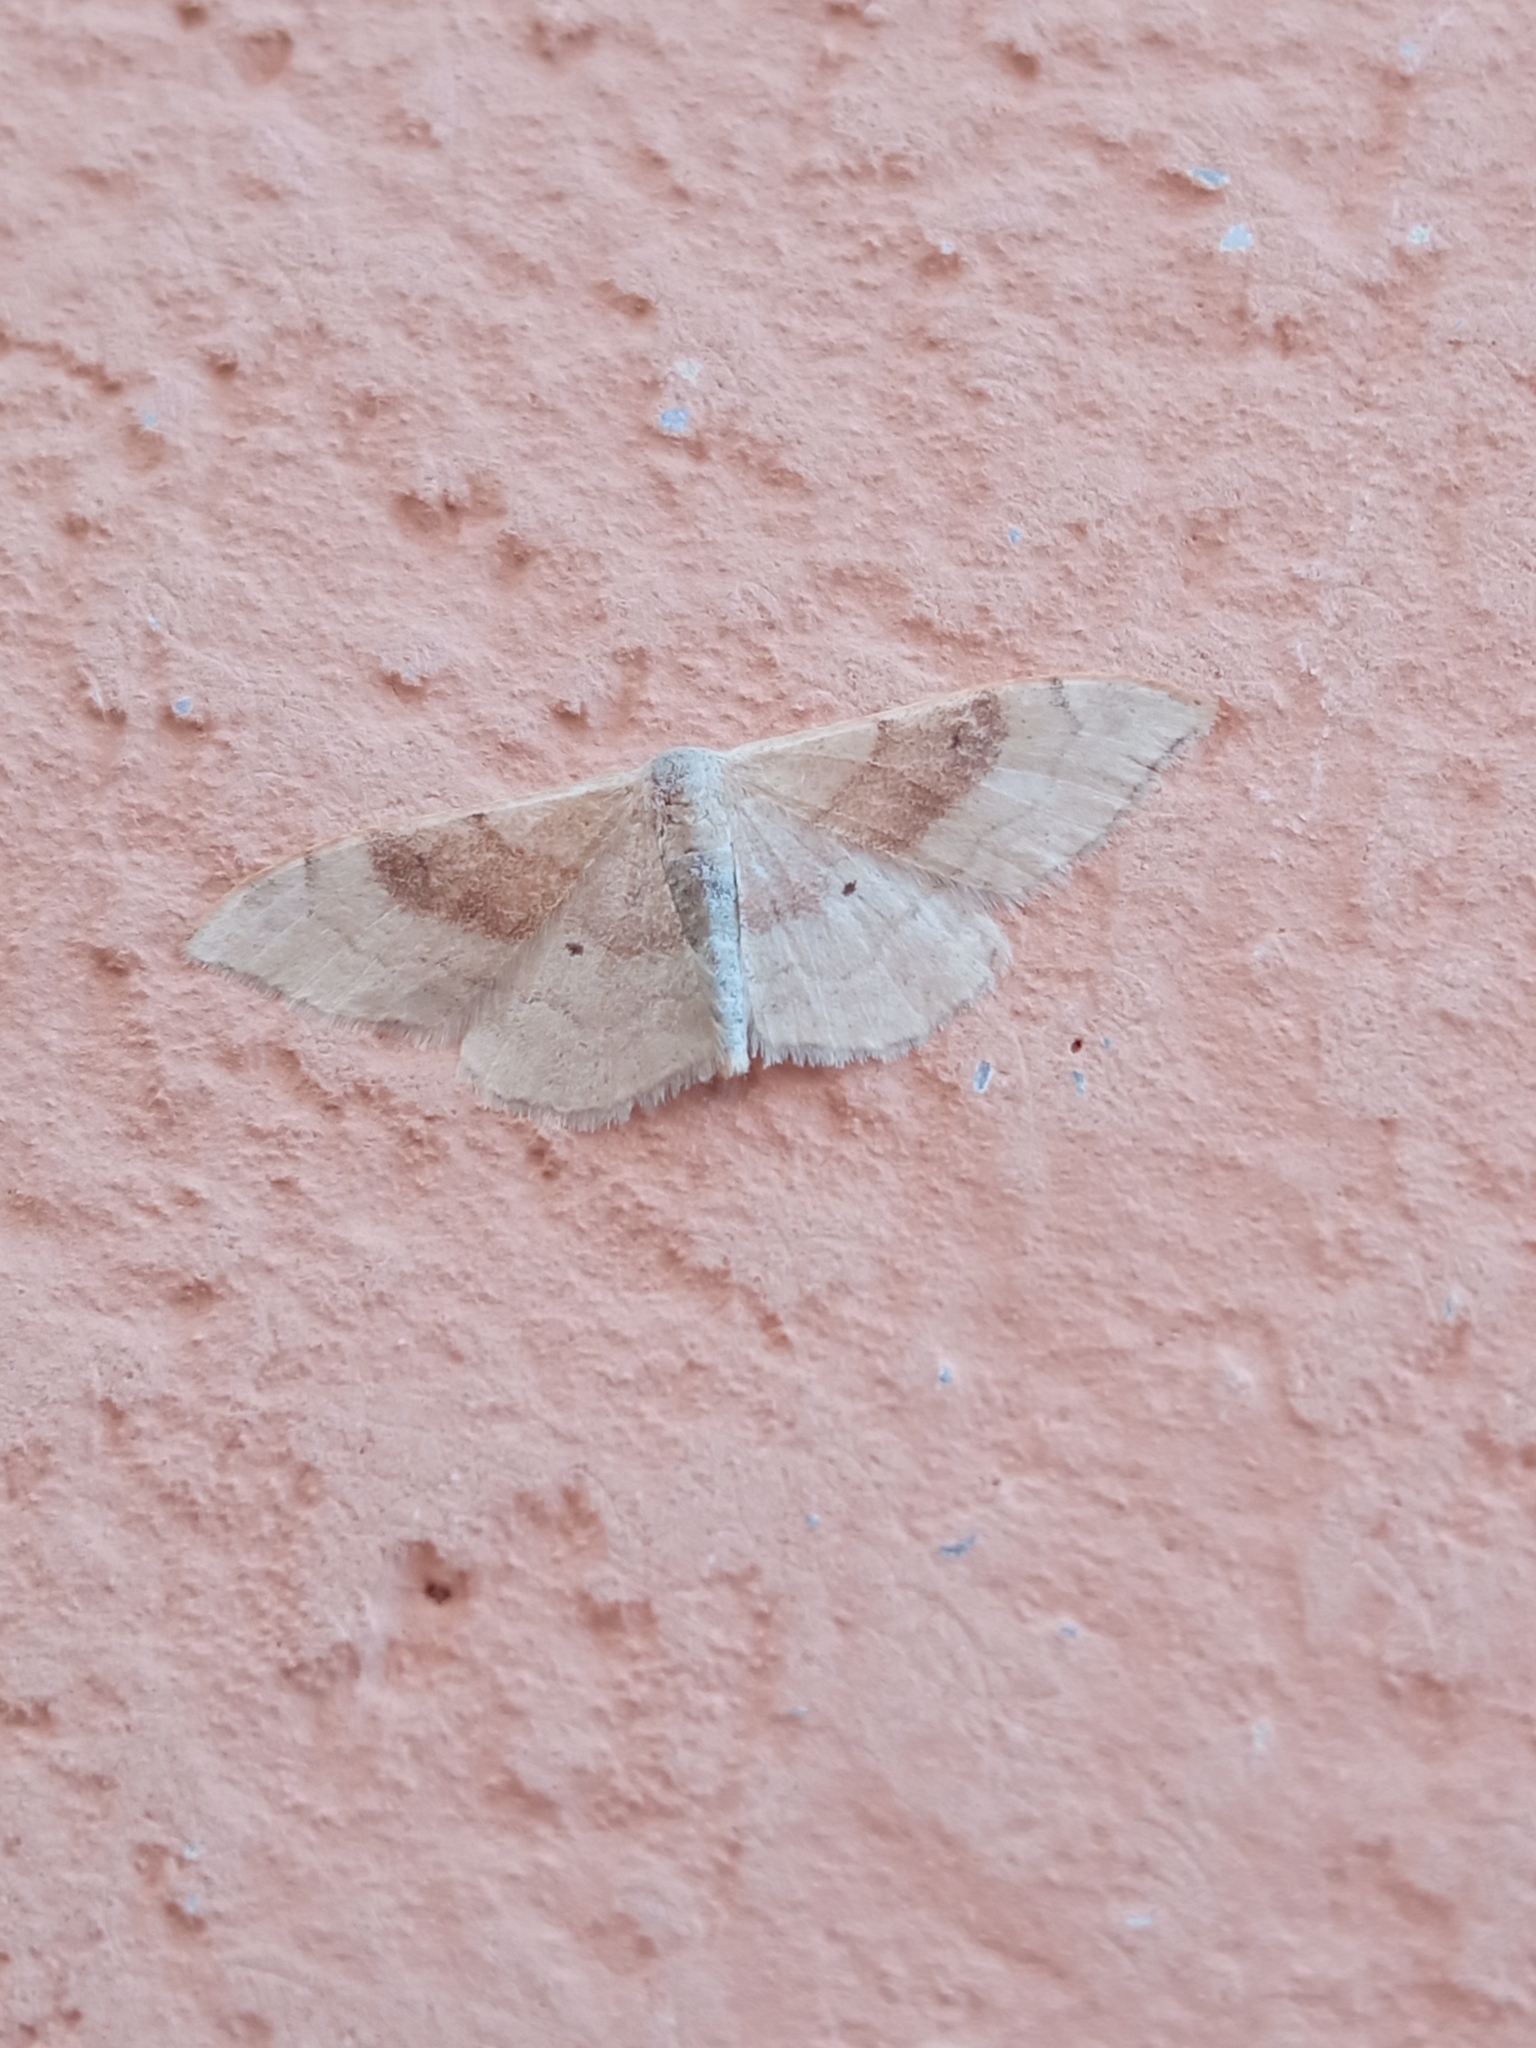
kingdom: Animalia
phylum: Arthropoda
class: Insecta
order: Lepidoptera
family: Geometridae
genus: Idaea
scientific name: Idaea degeneraria
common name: Portland ribbon wave
